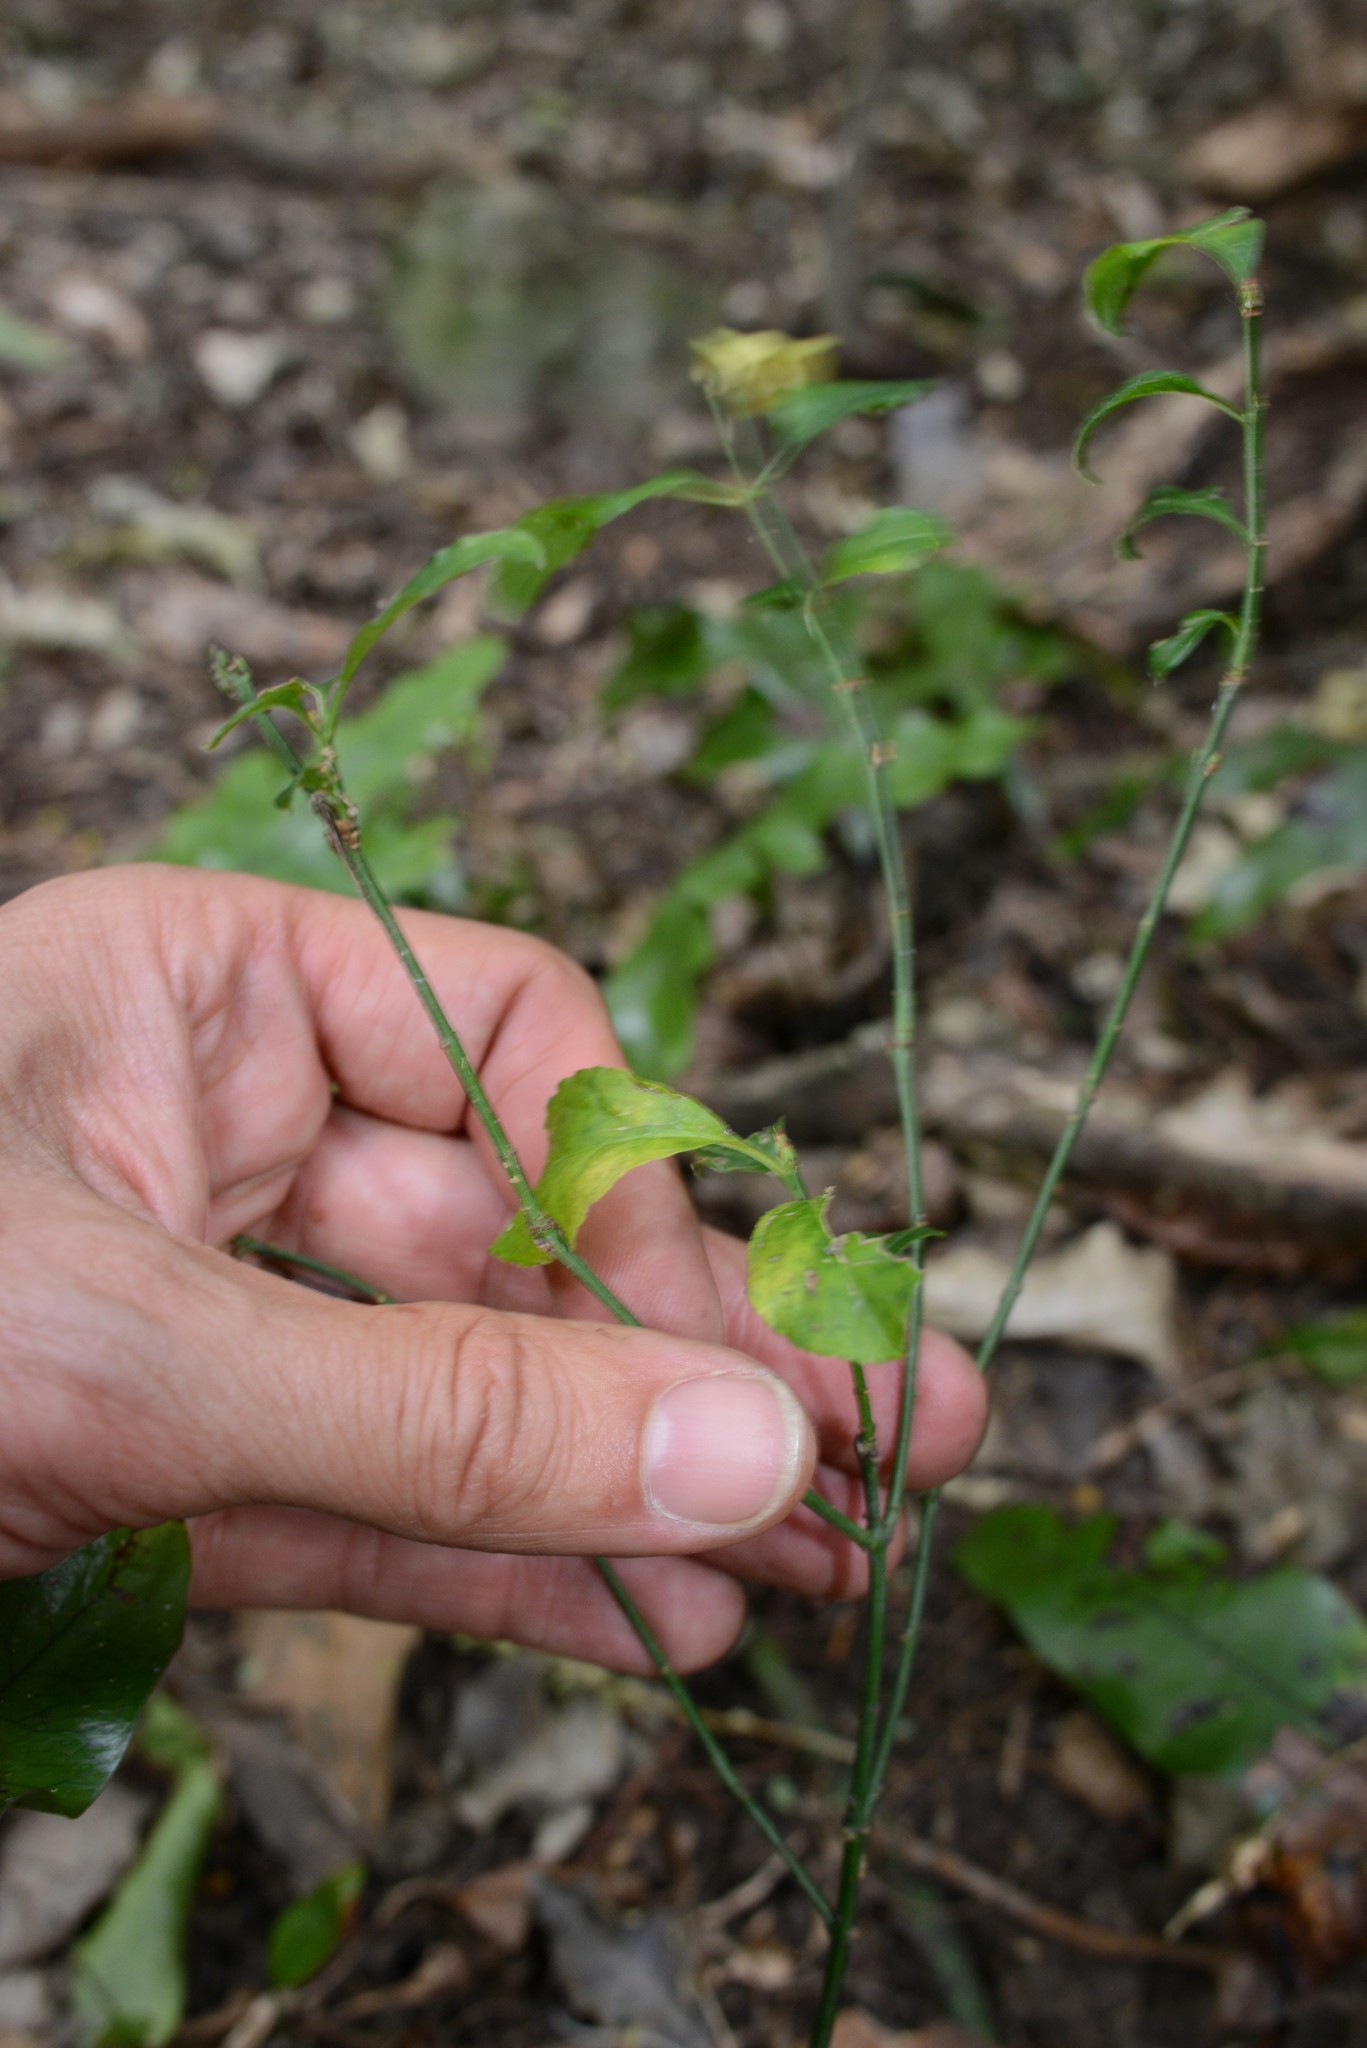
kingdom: Plantae
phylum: Tracheophyta
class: Magnoliopsida
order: Celastrales
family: Celastraceae
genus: Euonymus
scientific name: Euonymus europaeus
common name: Spindle
